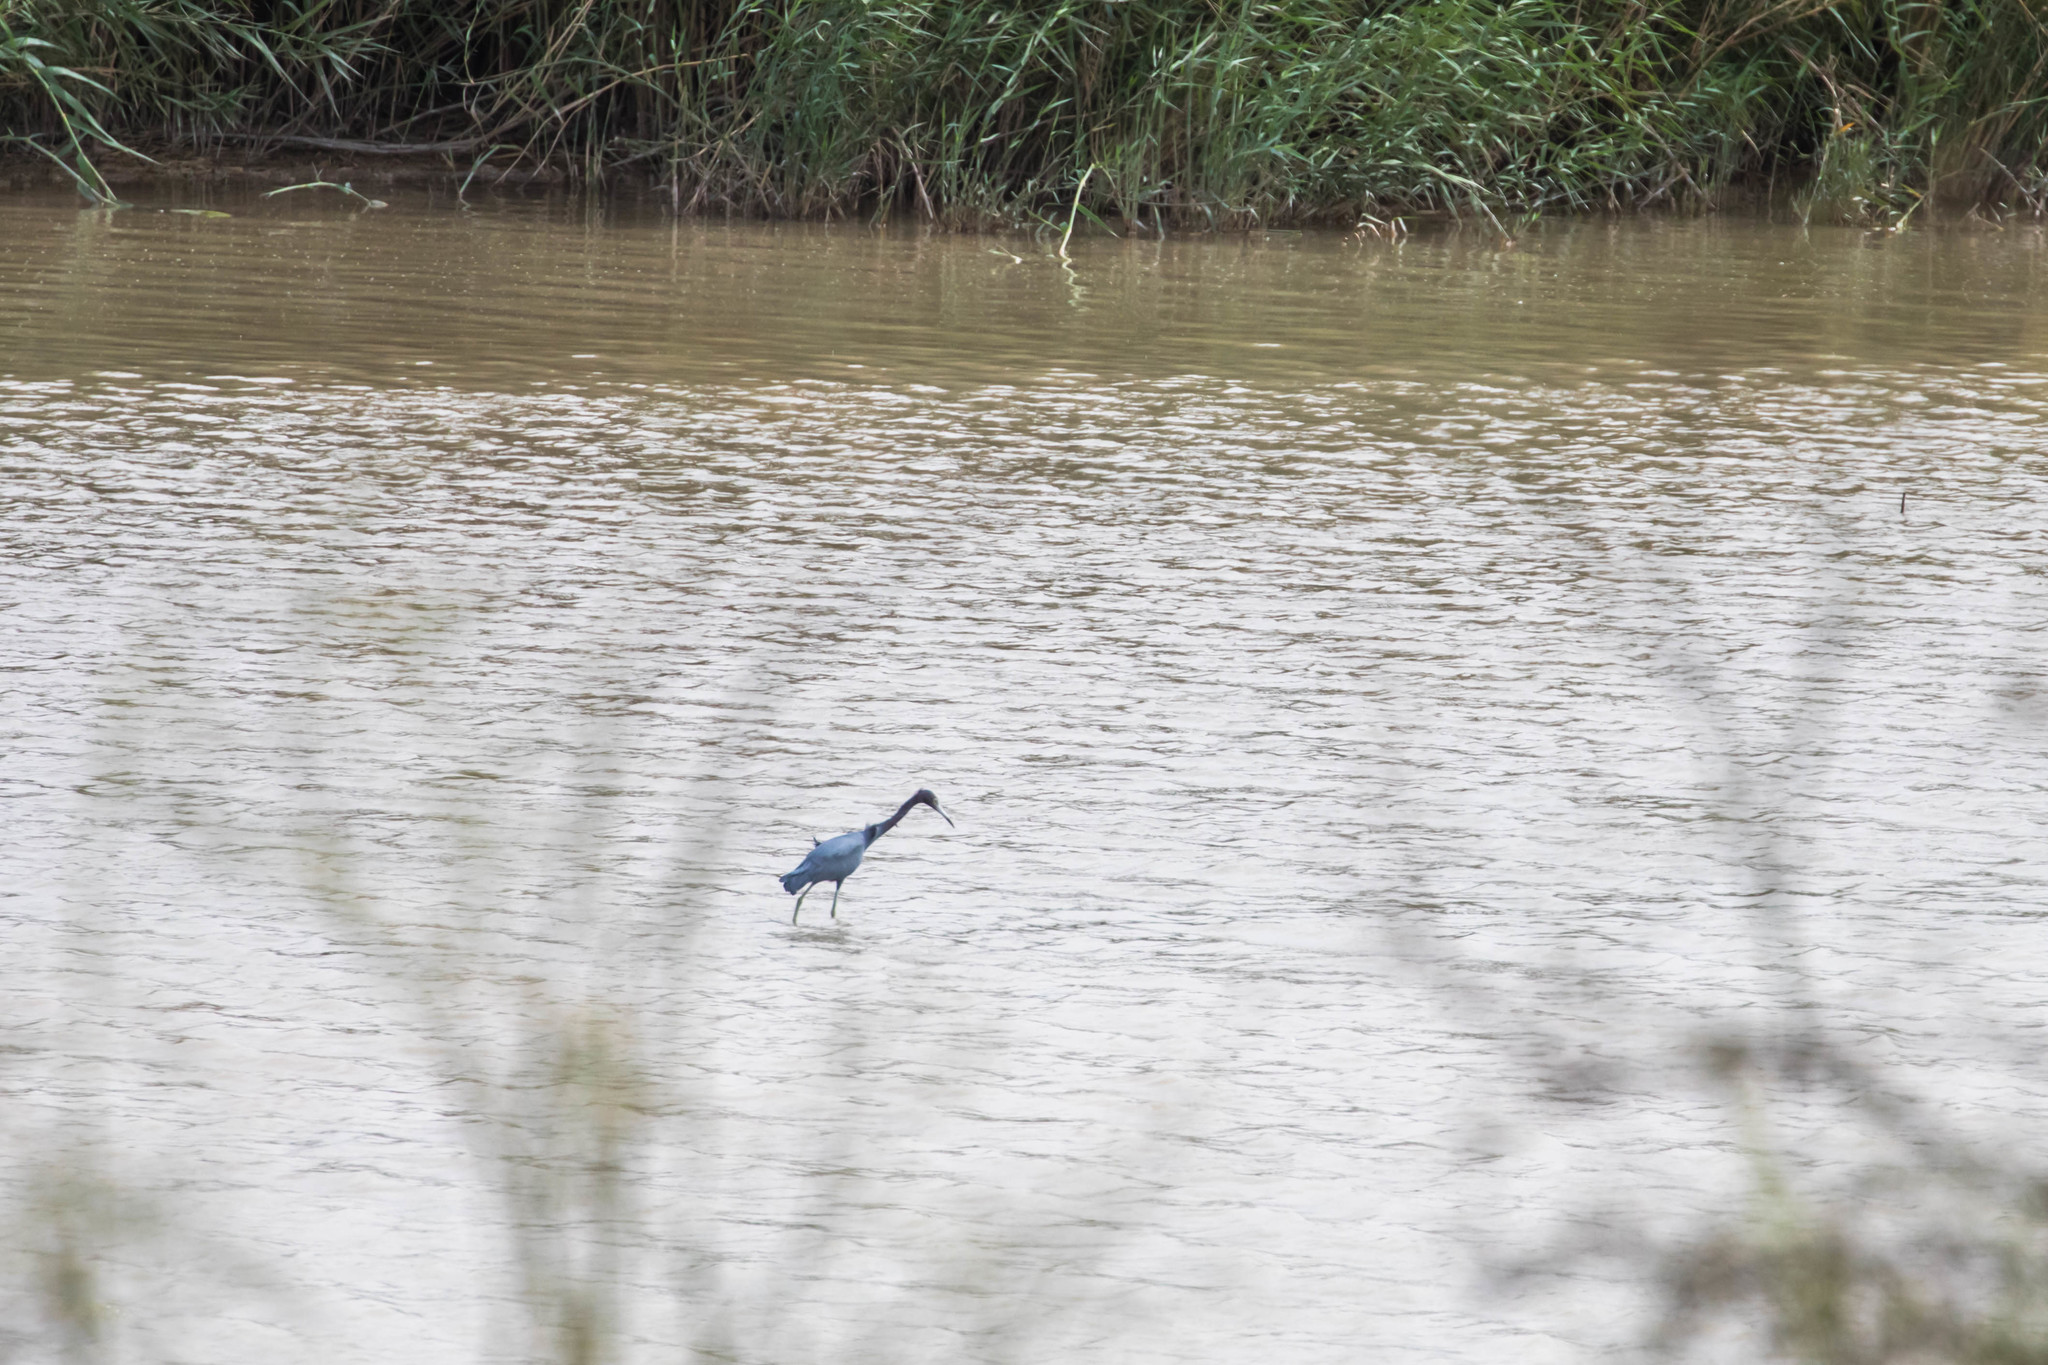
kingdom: Animalia
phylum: Chordata
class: Aves
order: Pelecaniformes
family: Ardeidae
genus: Egretta
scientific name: Egretta caerulea
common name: Little blue heron
